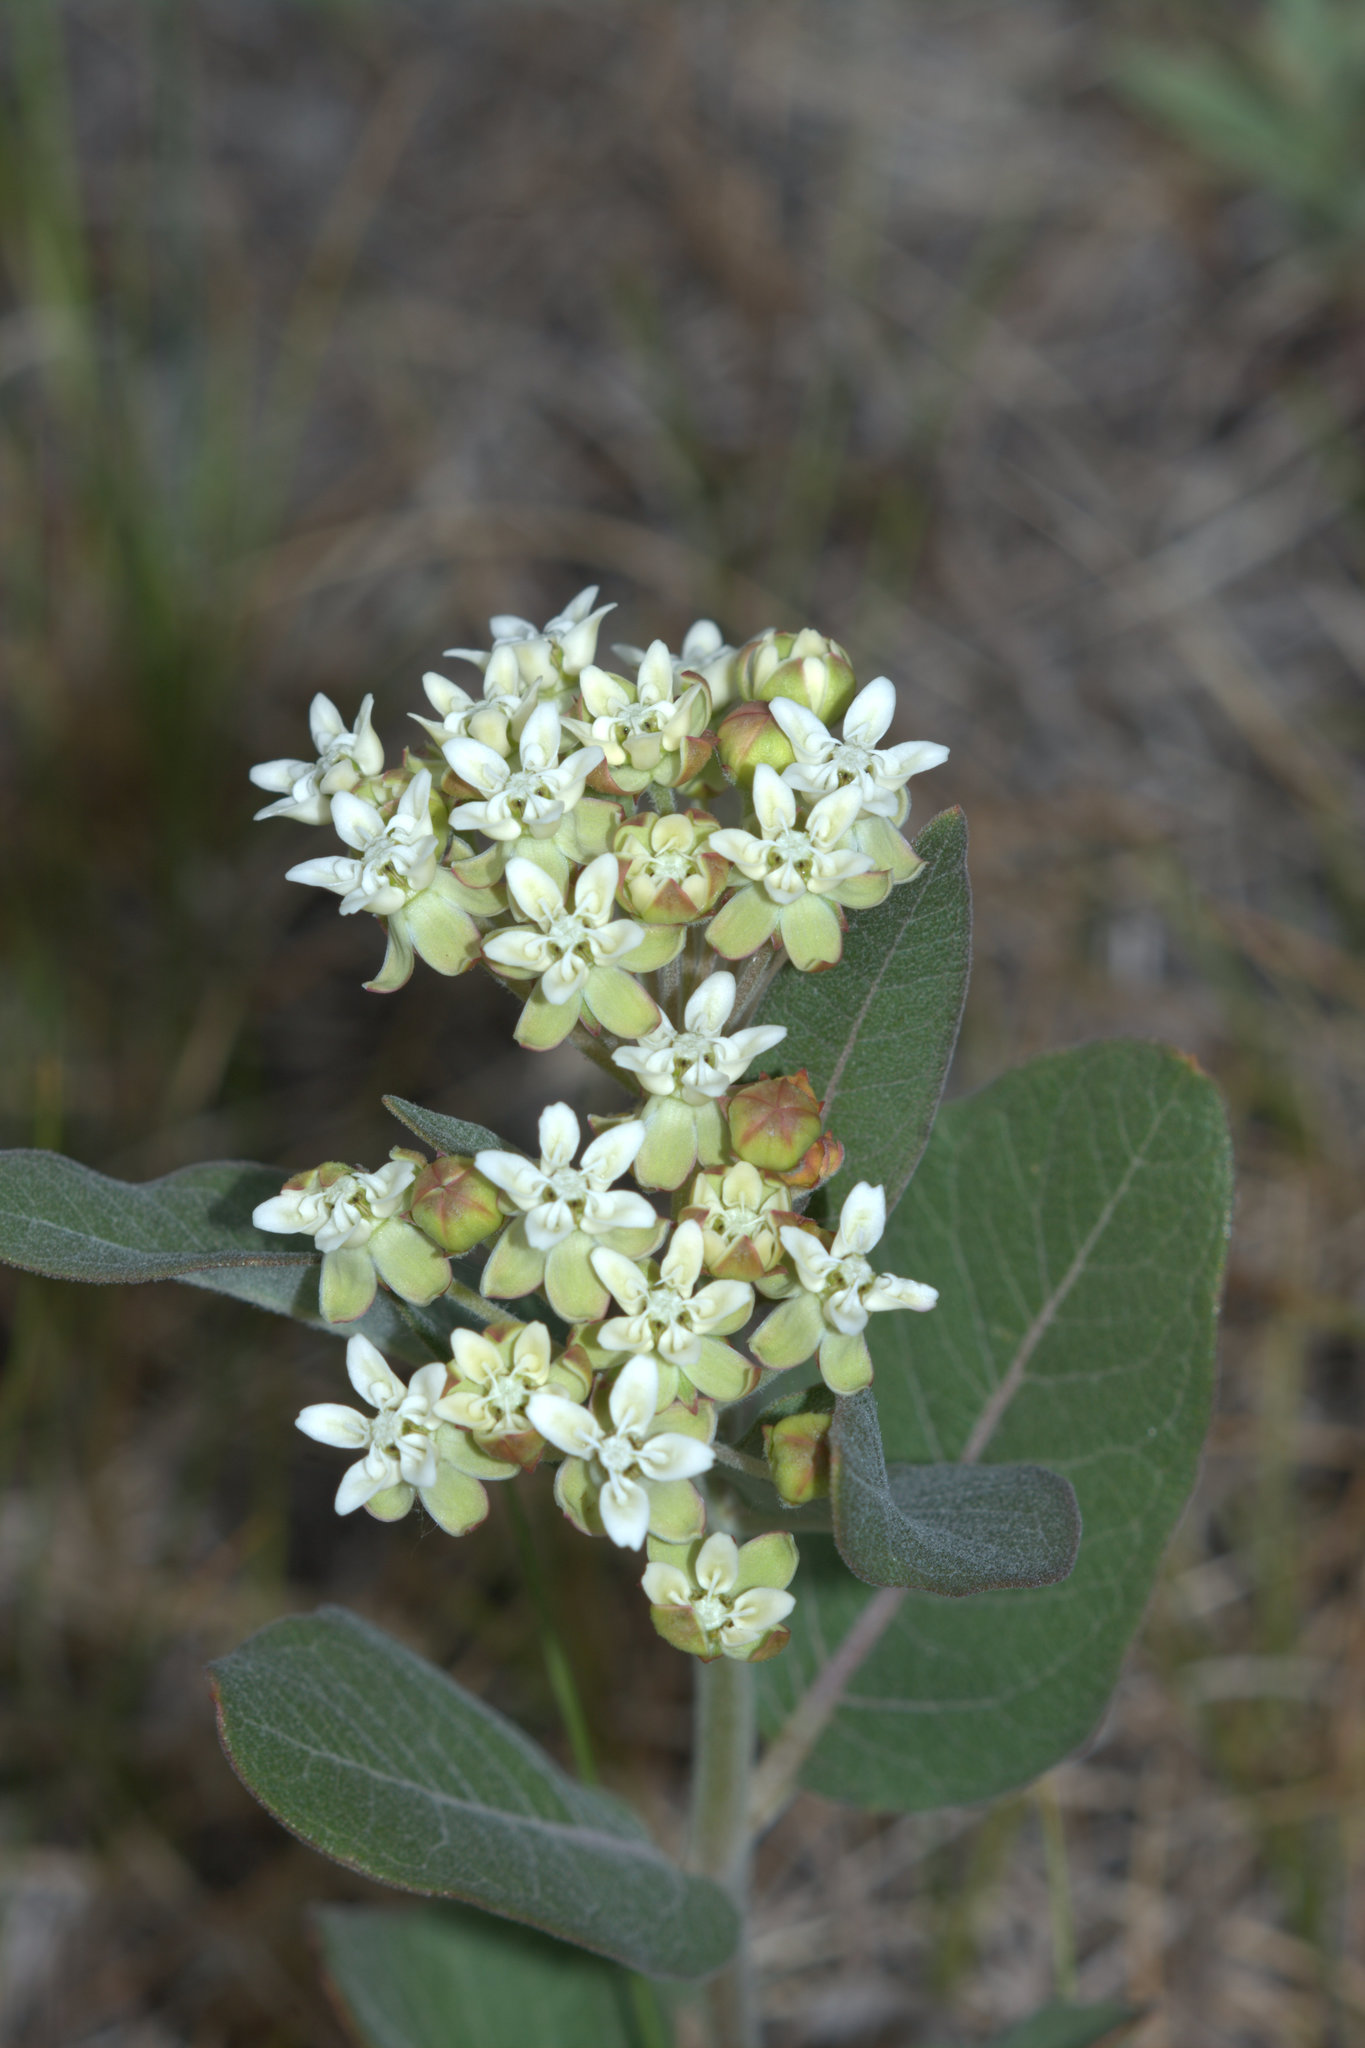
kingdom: Plantae
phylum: Tracheophyta
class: Magnoliopsida
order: Gentianales
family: Apocynaceae
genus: Asclepias
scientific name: Asclepias ovalifolia
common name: Dwarf milkweed
